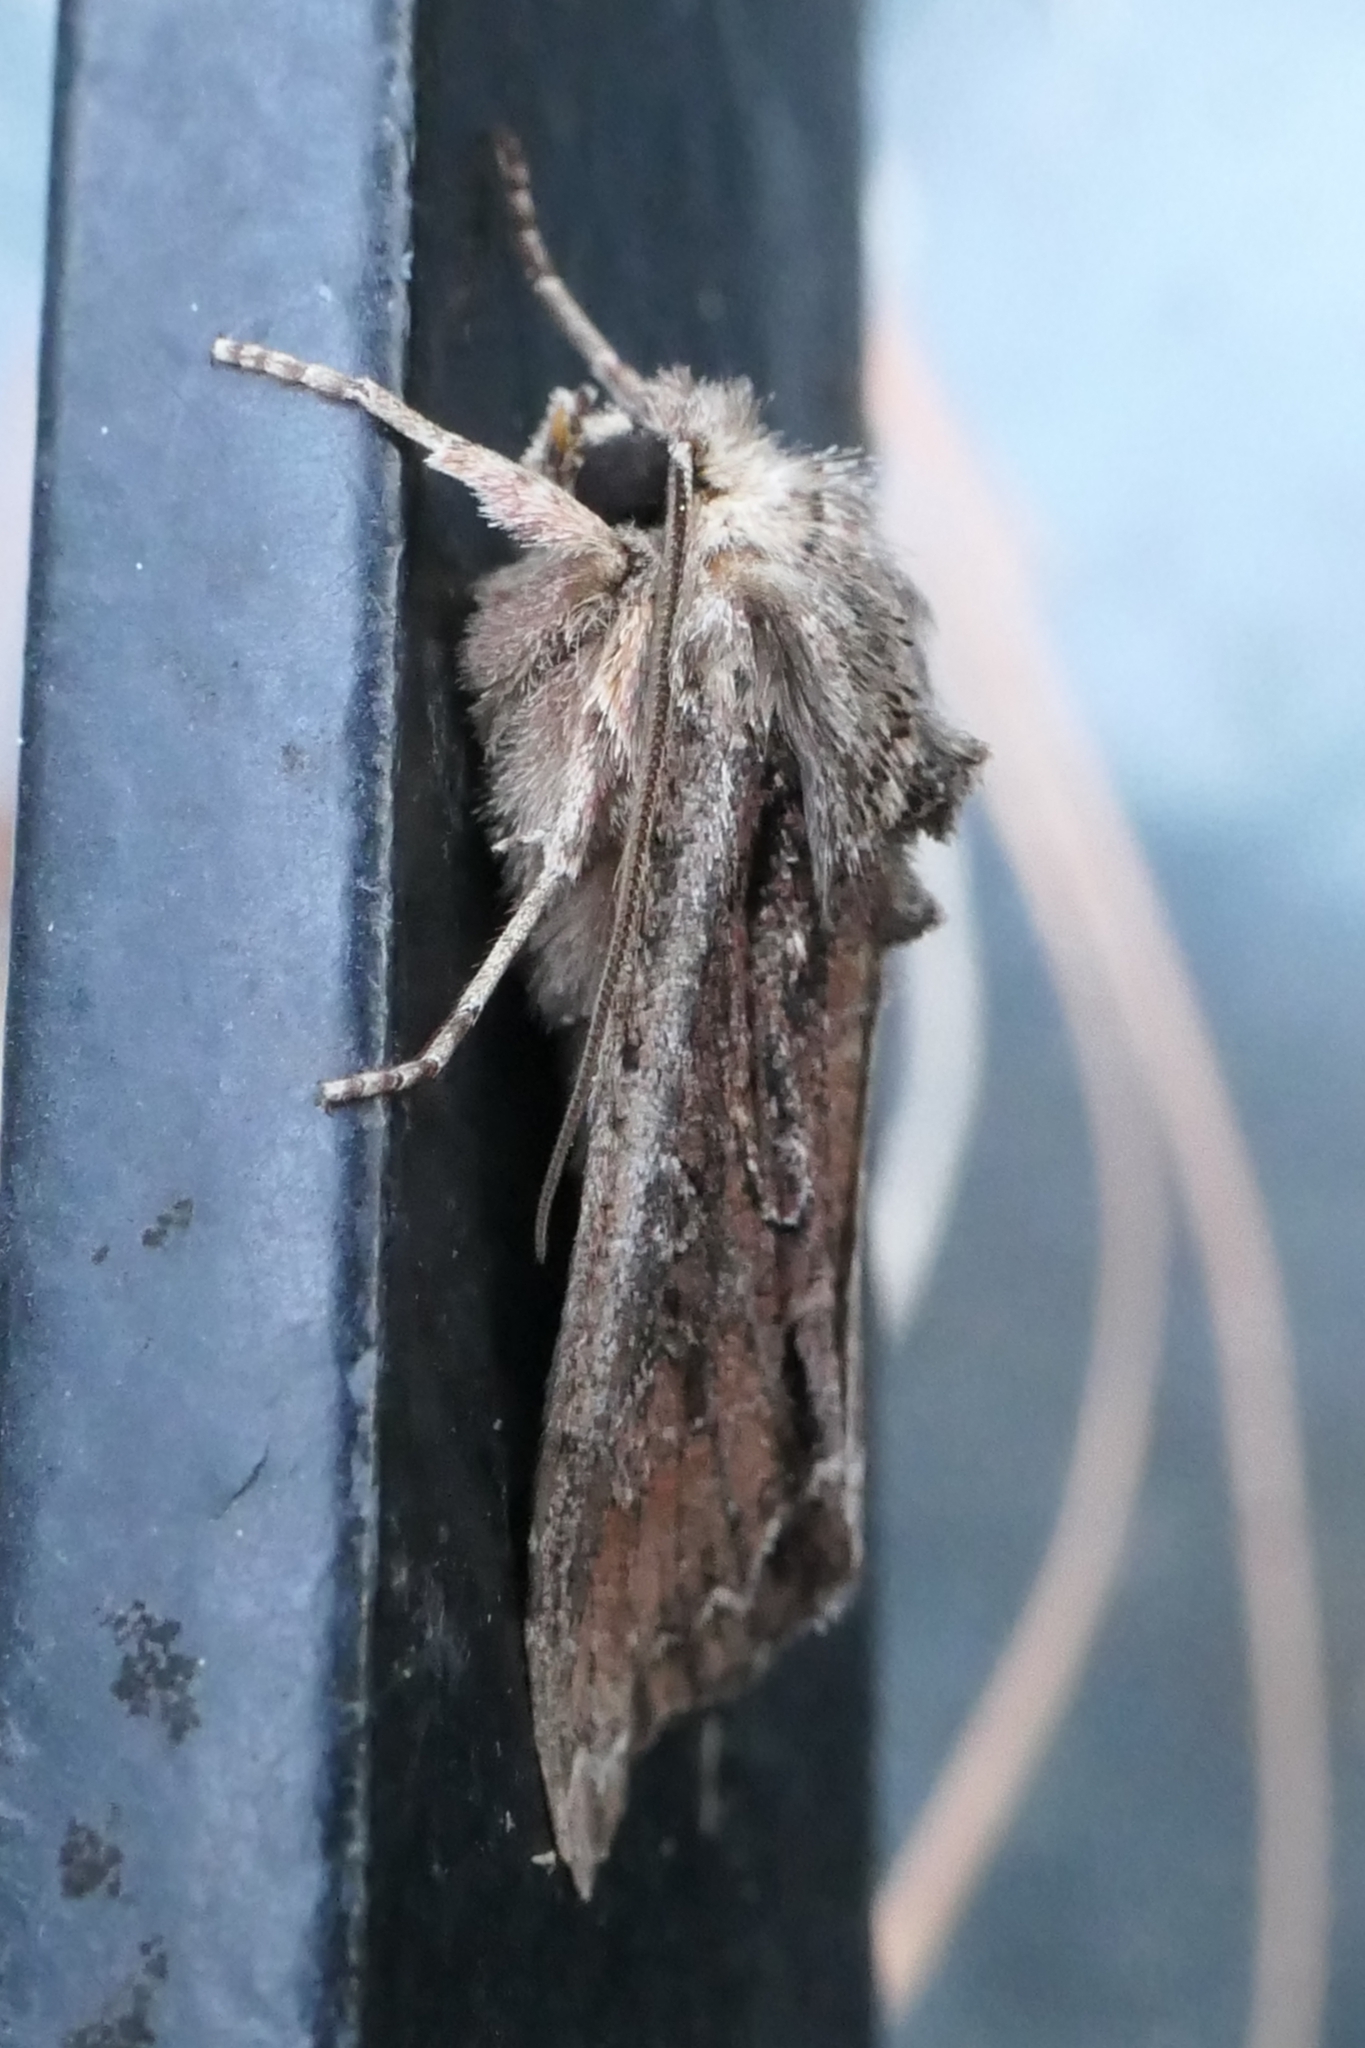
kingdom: Animalia
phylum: Arthropoda
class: Insecta
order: Lepidoptera
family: Noctuidae
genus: Ichneutica
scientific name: Ichneutica mutans
